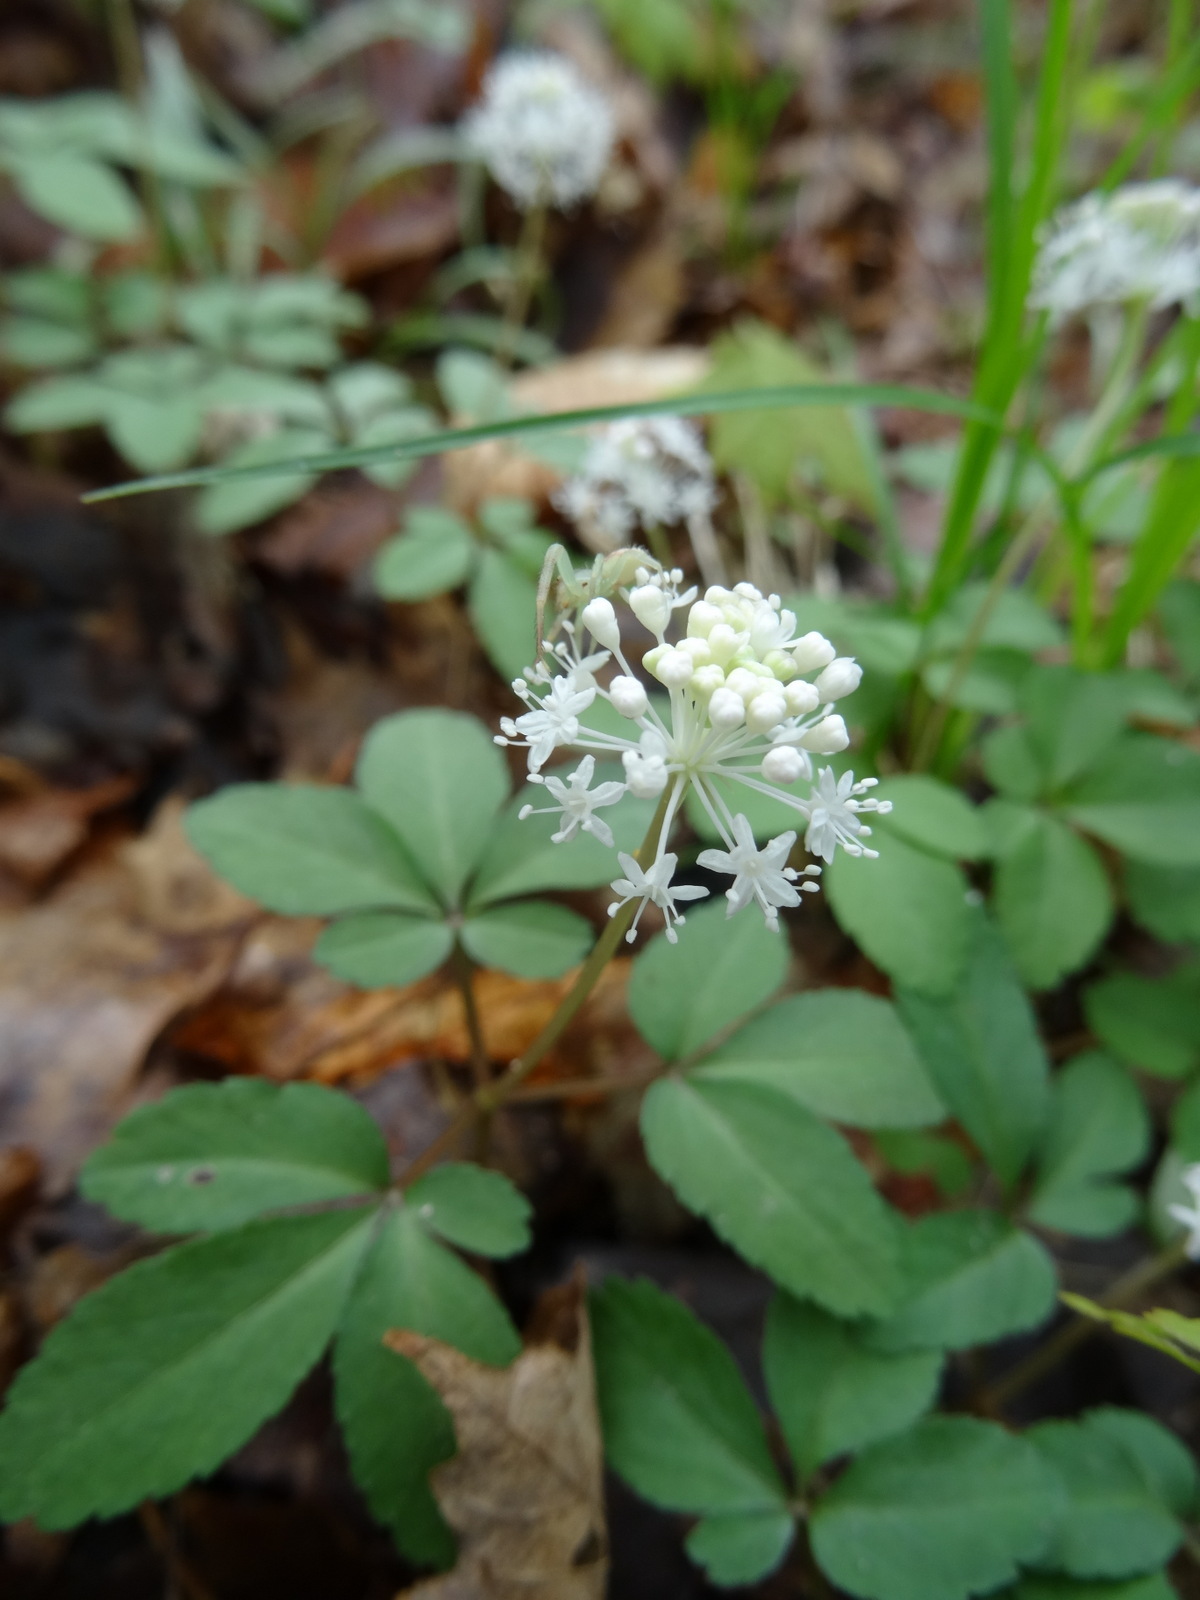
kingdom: Plantae
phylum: Tracheophyta
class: Magnoliopsida
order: Apiales
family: Araliaceae
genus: Panax
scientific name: Panax trifolius
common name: Dwarf ginseng
